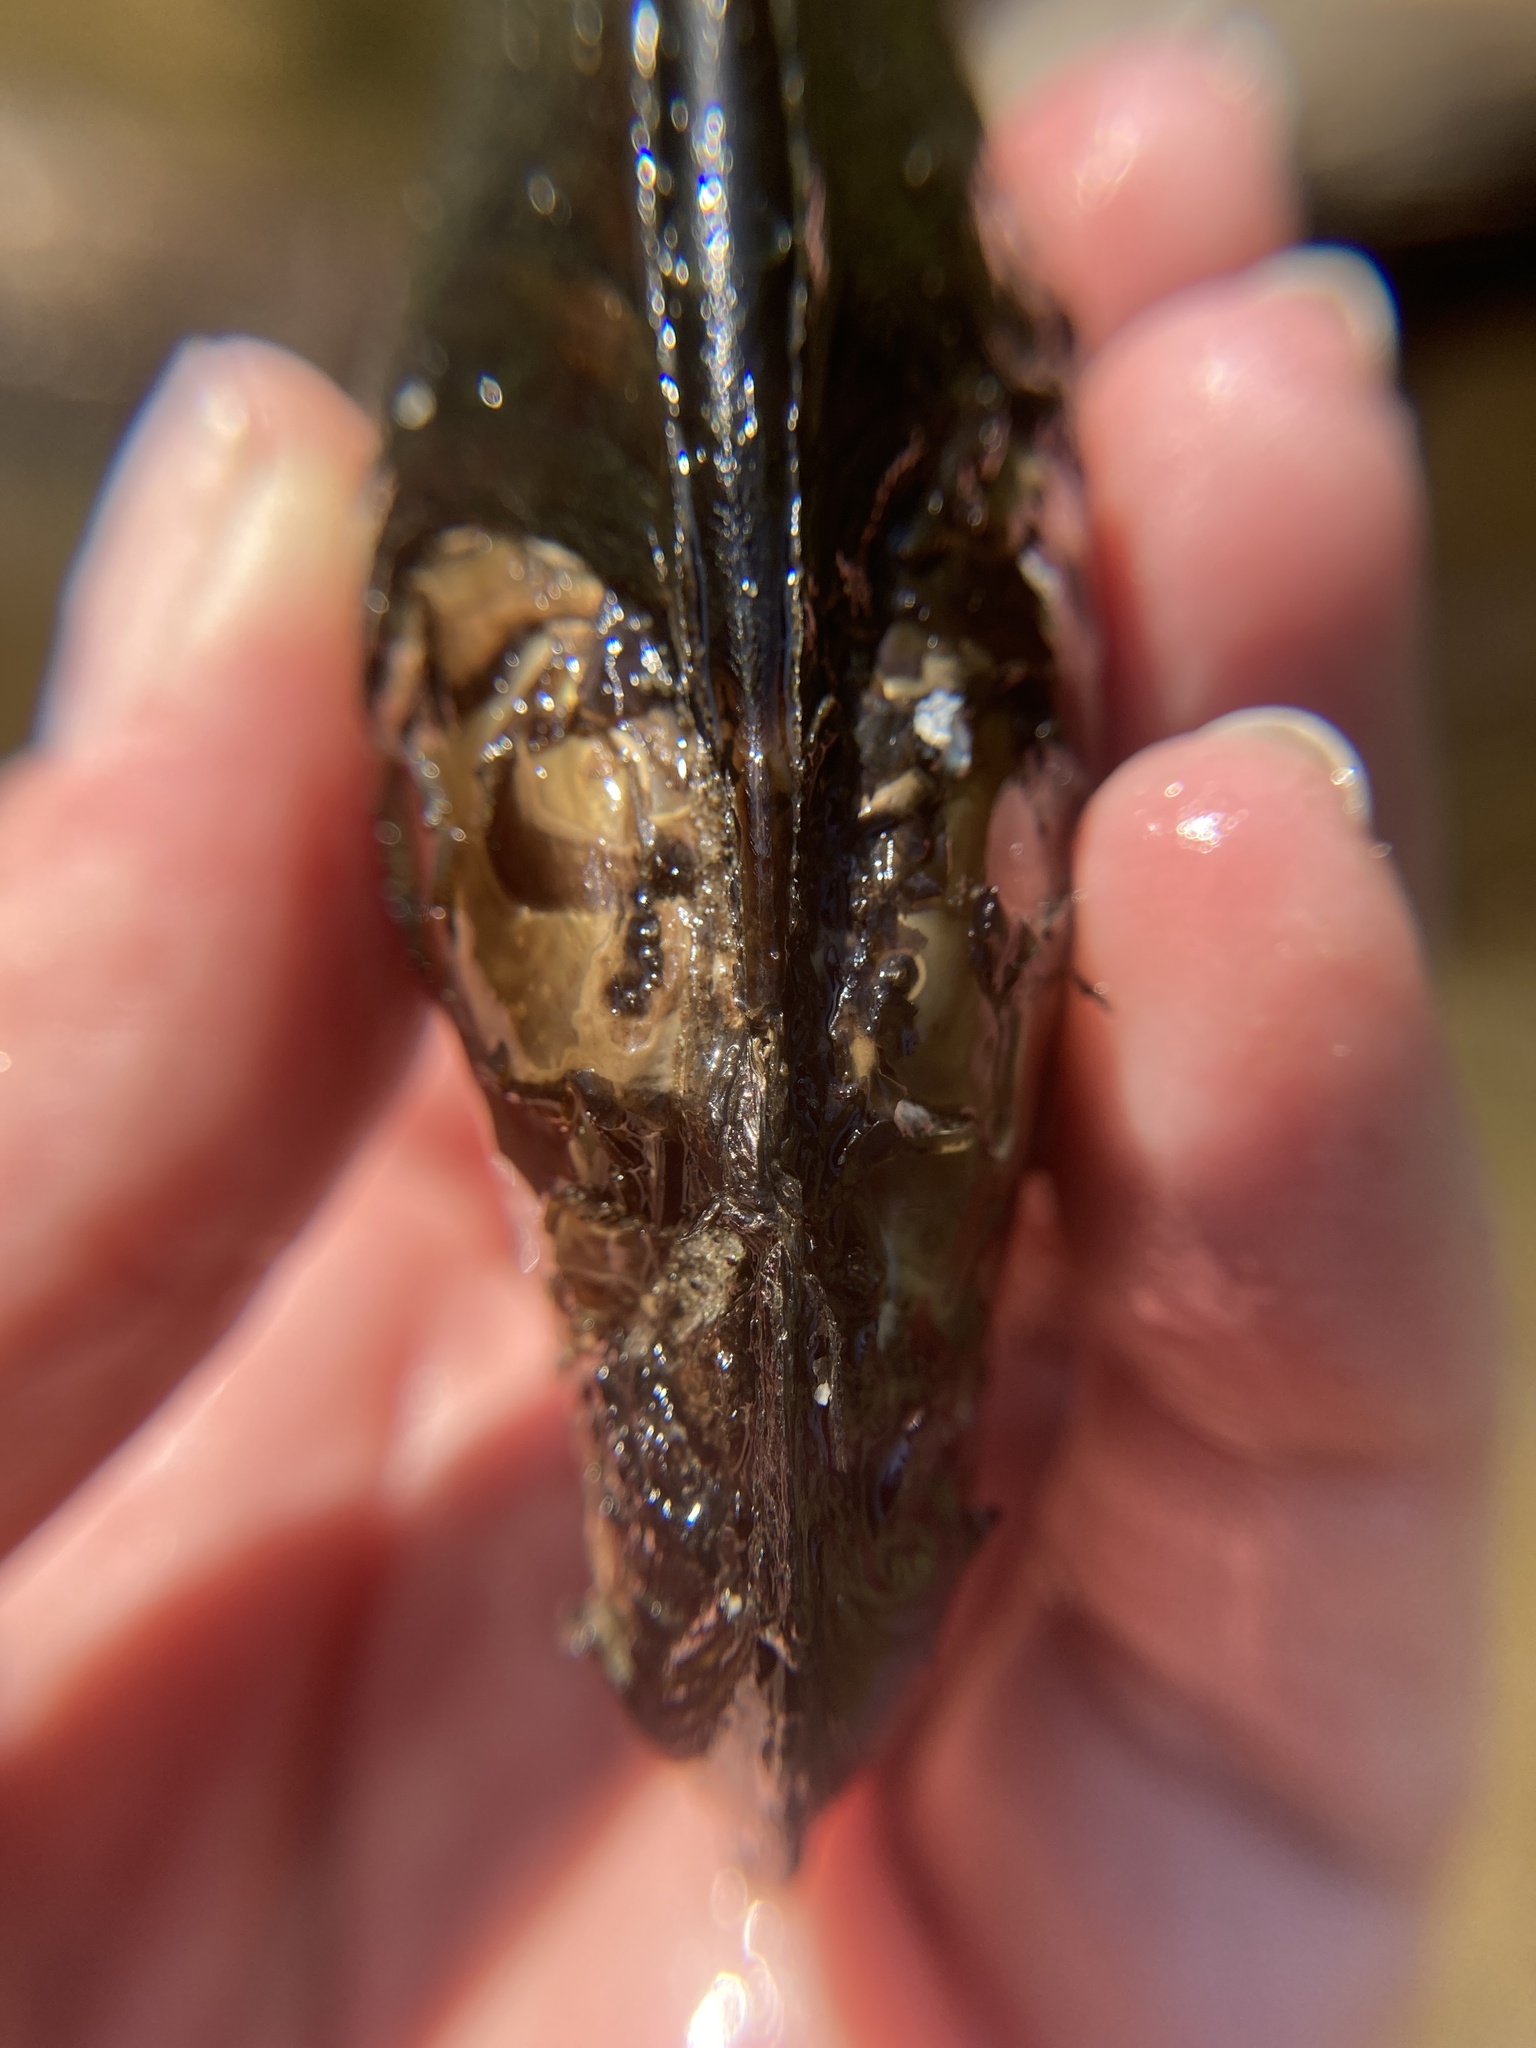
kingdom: Animalia
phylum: Mollusca
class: Bivalvia
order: Unionida
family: Unionidae
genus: Elliptio
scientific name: Elliptio complanata
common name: Eastern elliptio
